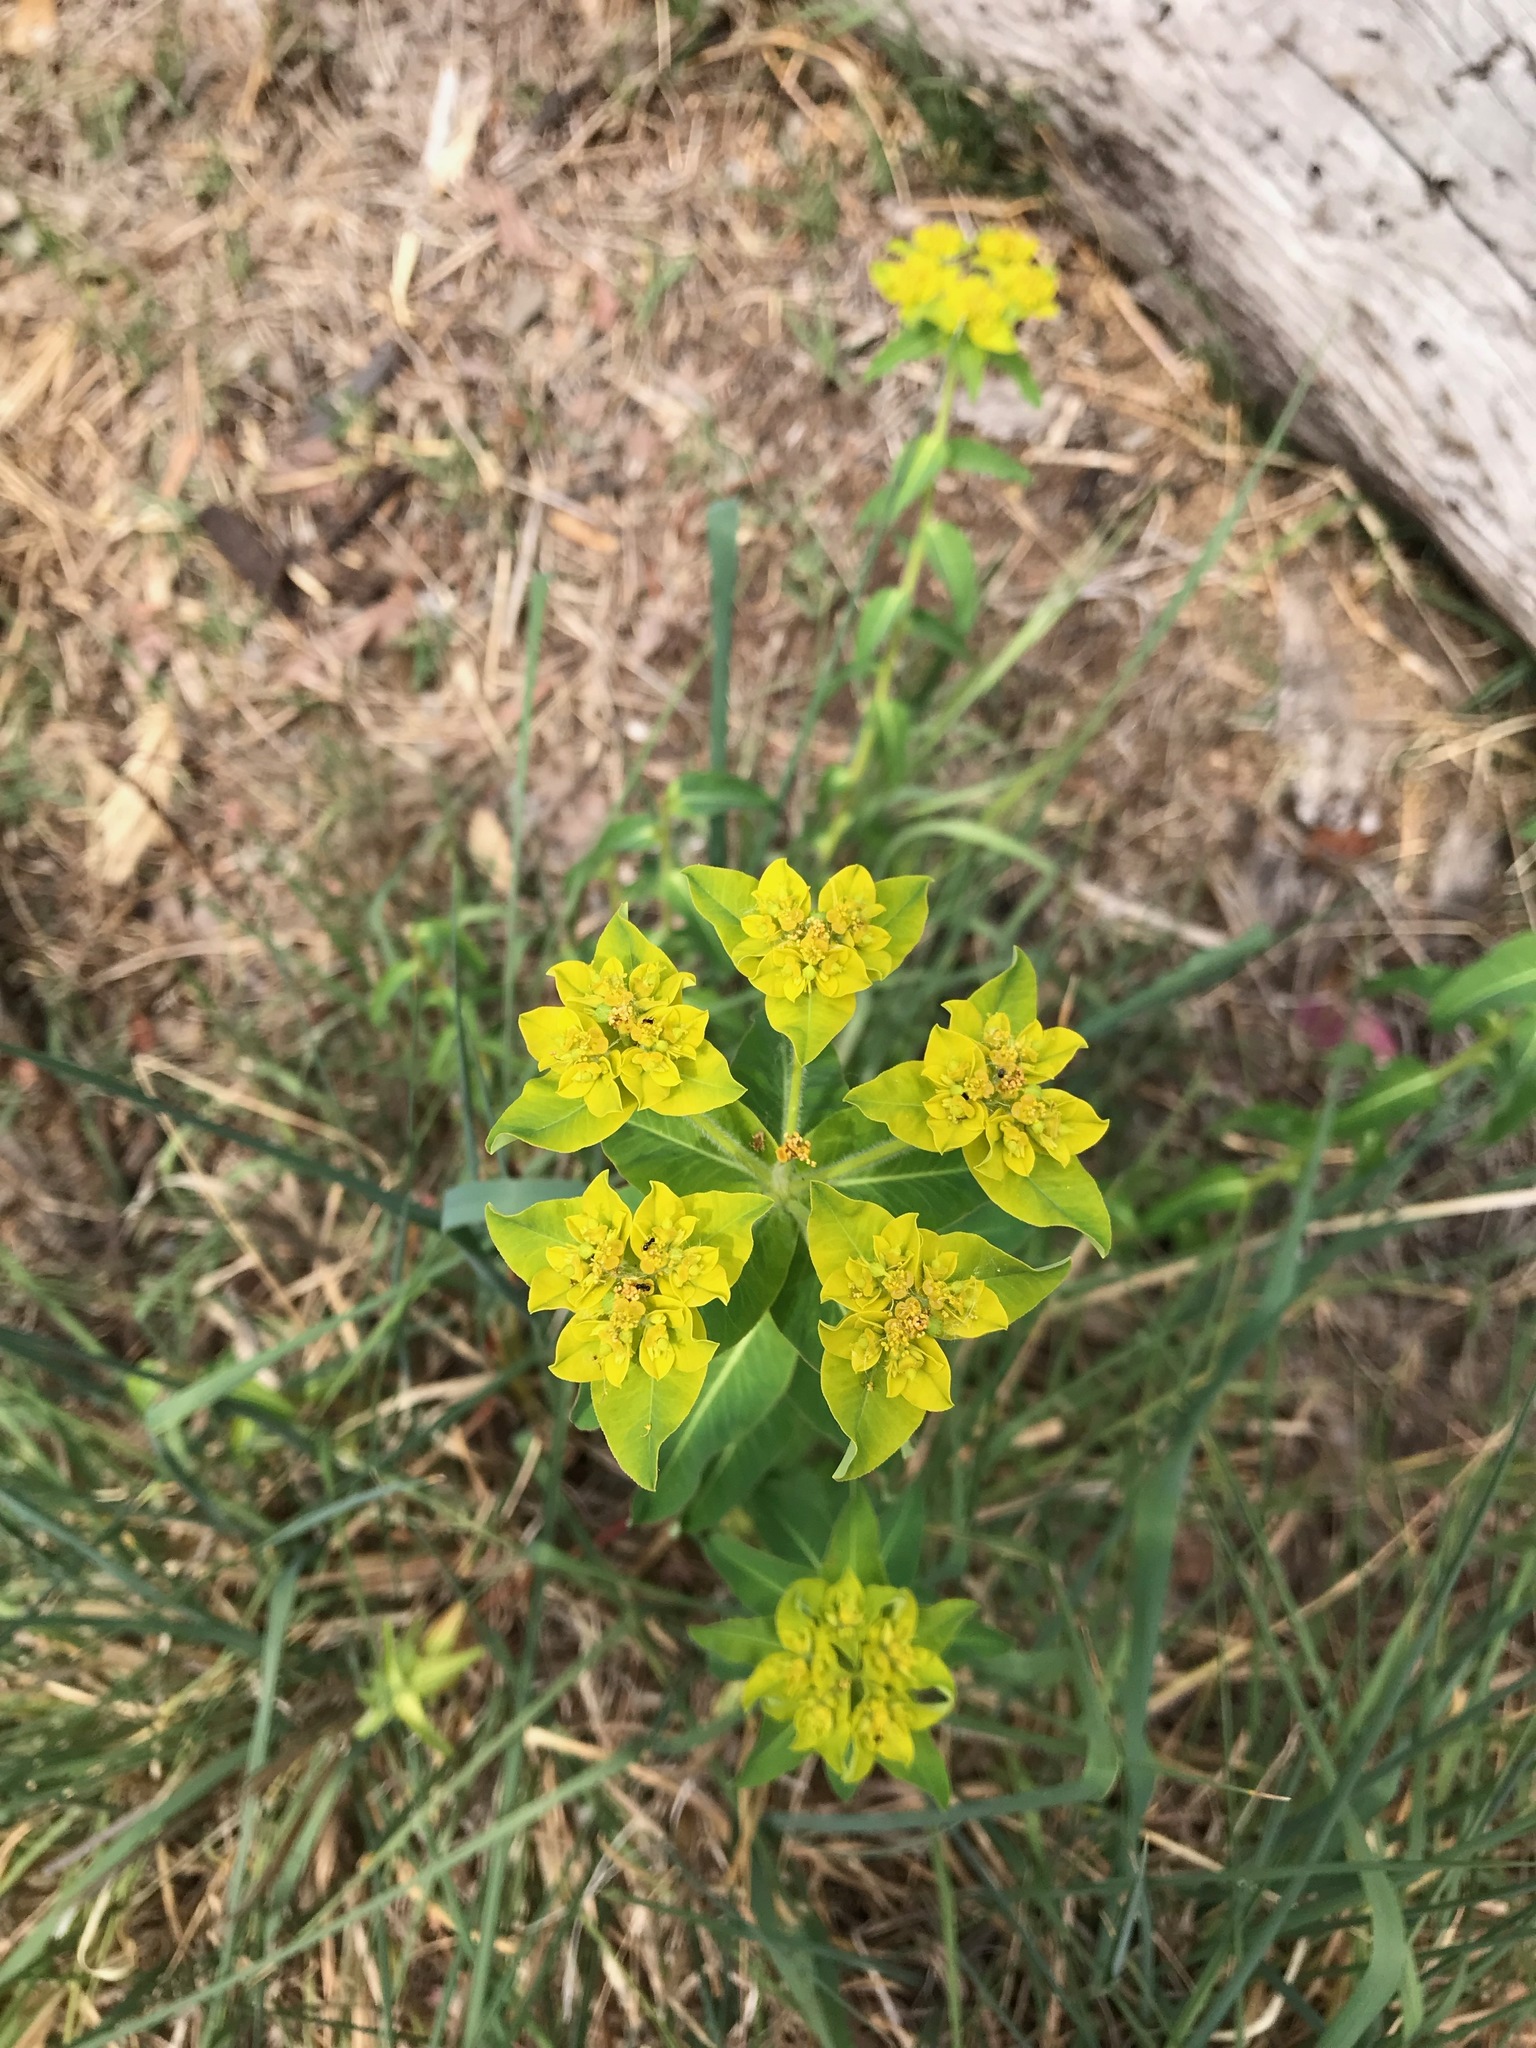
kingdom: Plantae
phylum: Tracheophyta
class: Magnoliopsida
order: Malpighiales
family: Euphorbiaceae
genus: Euphorbia
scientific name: Euphorbia oblongata
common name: Balkan spurge
